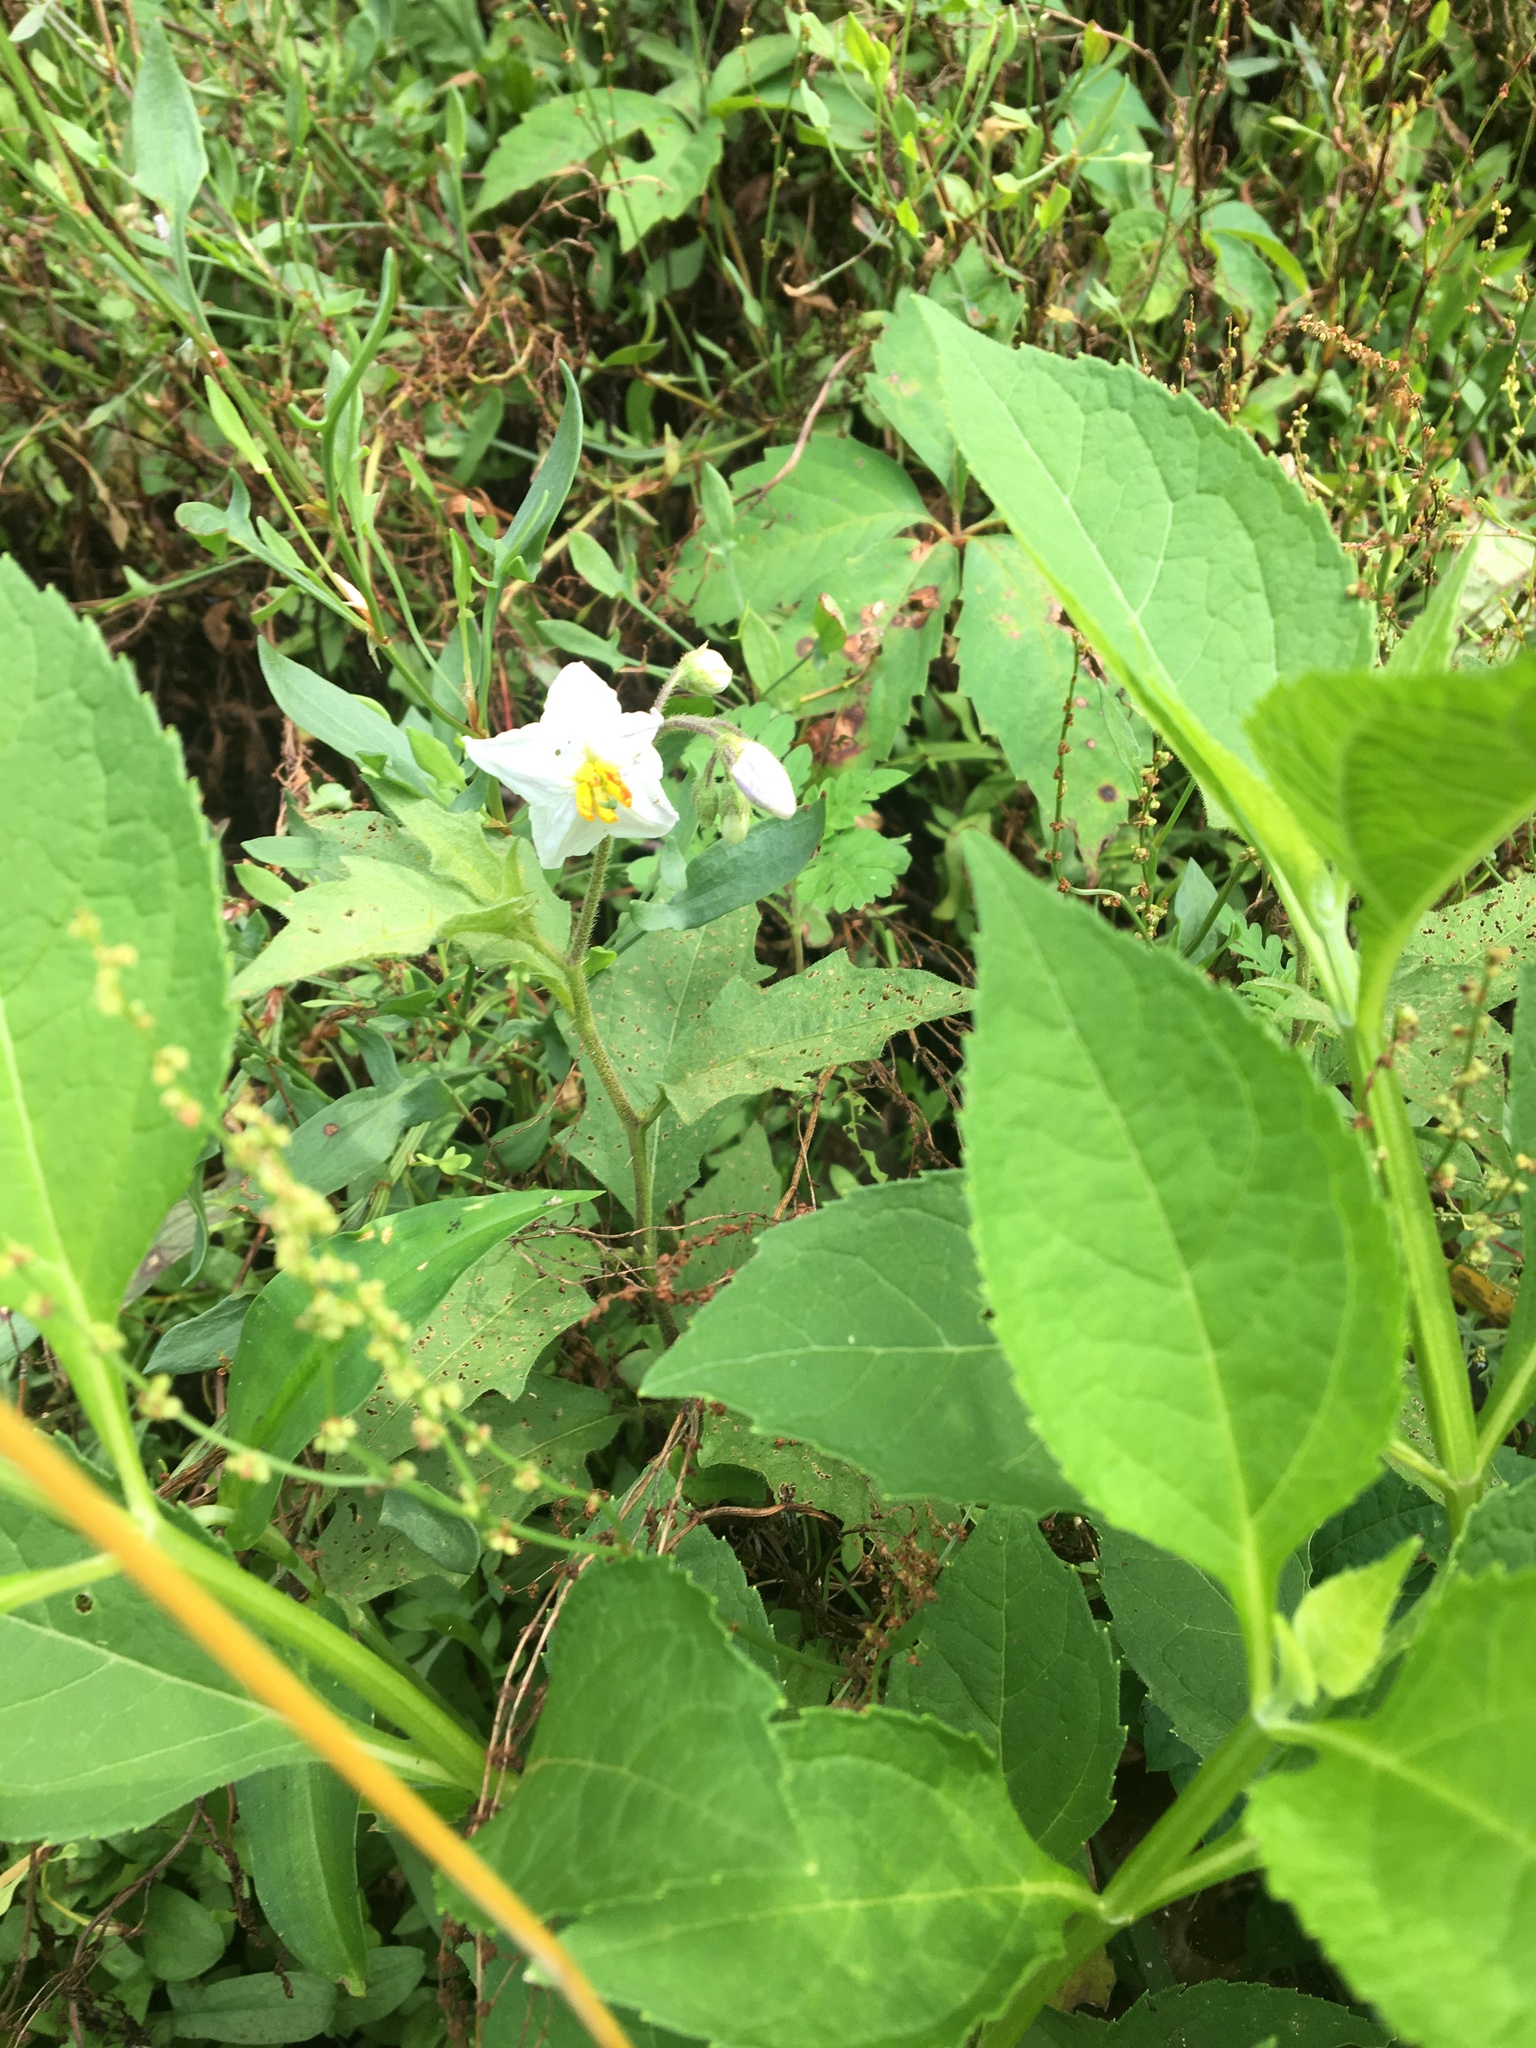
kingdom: Plantae
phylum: Tracheophyta
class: Magnoliopsida
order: Solanales
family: Solanaceae
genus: Solanum
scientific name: Solanum carolinense
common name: Horse-nettle
